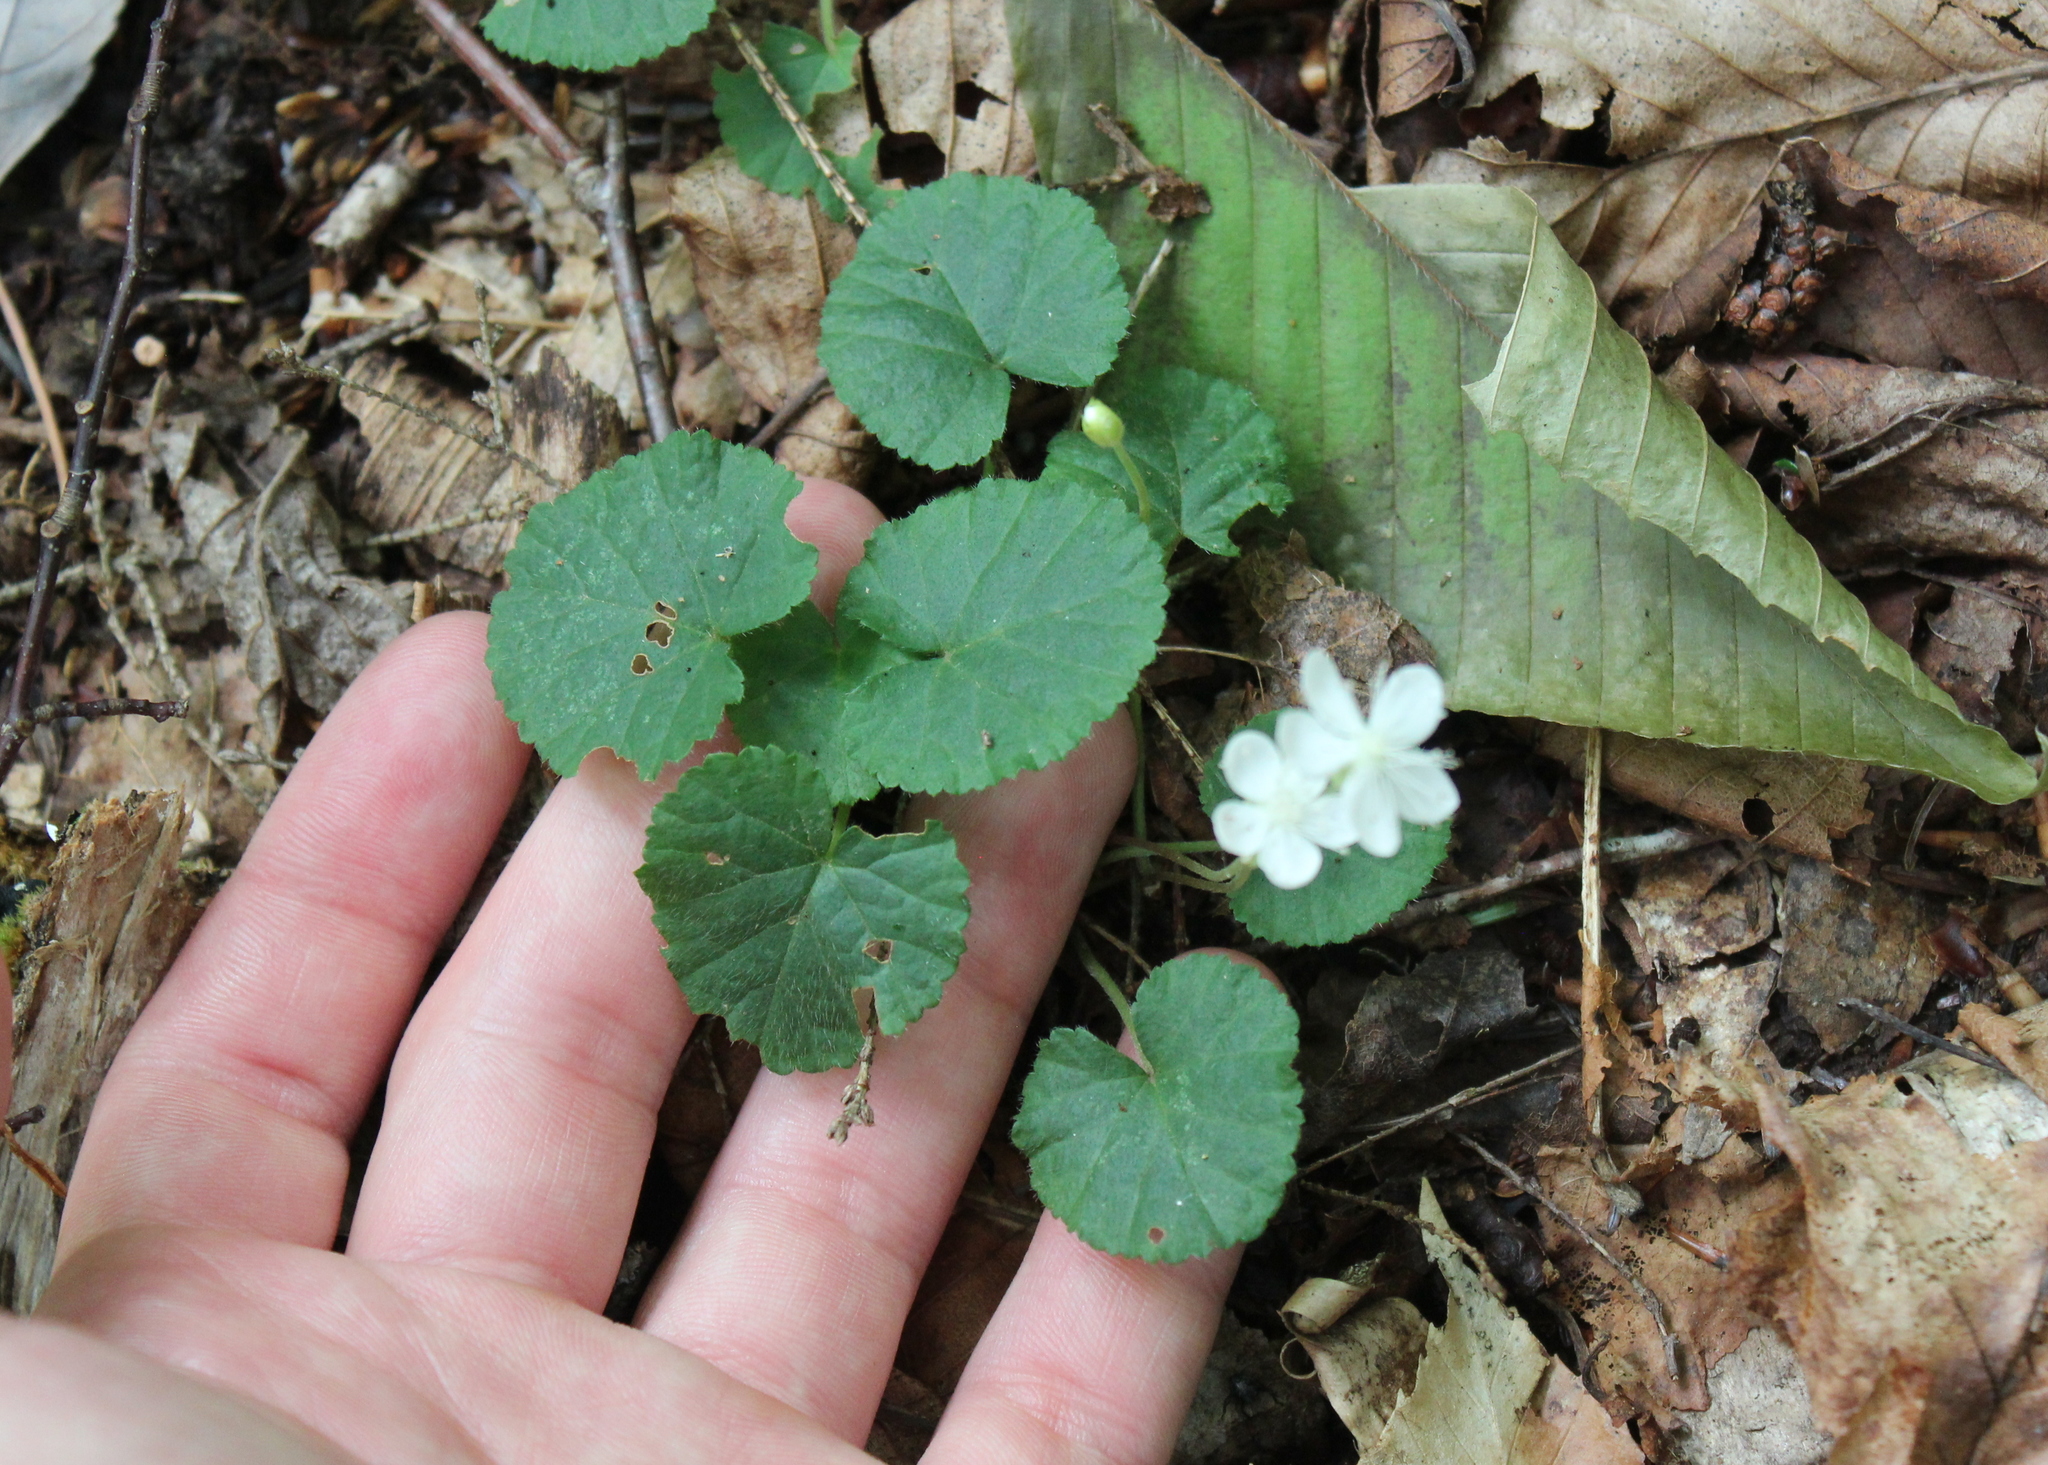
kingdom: Plantae
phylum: Tracheophyta
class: Magnoliopsida
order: Rosales
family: Rosaceae
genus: Dalibarda
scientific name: Dalibarda repens
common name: Dewdrop
